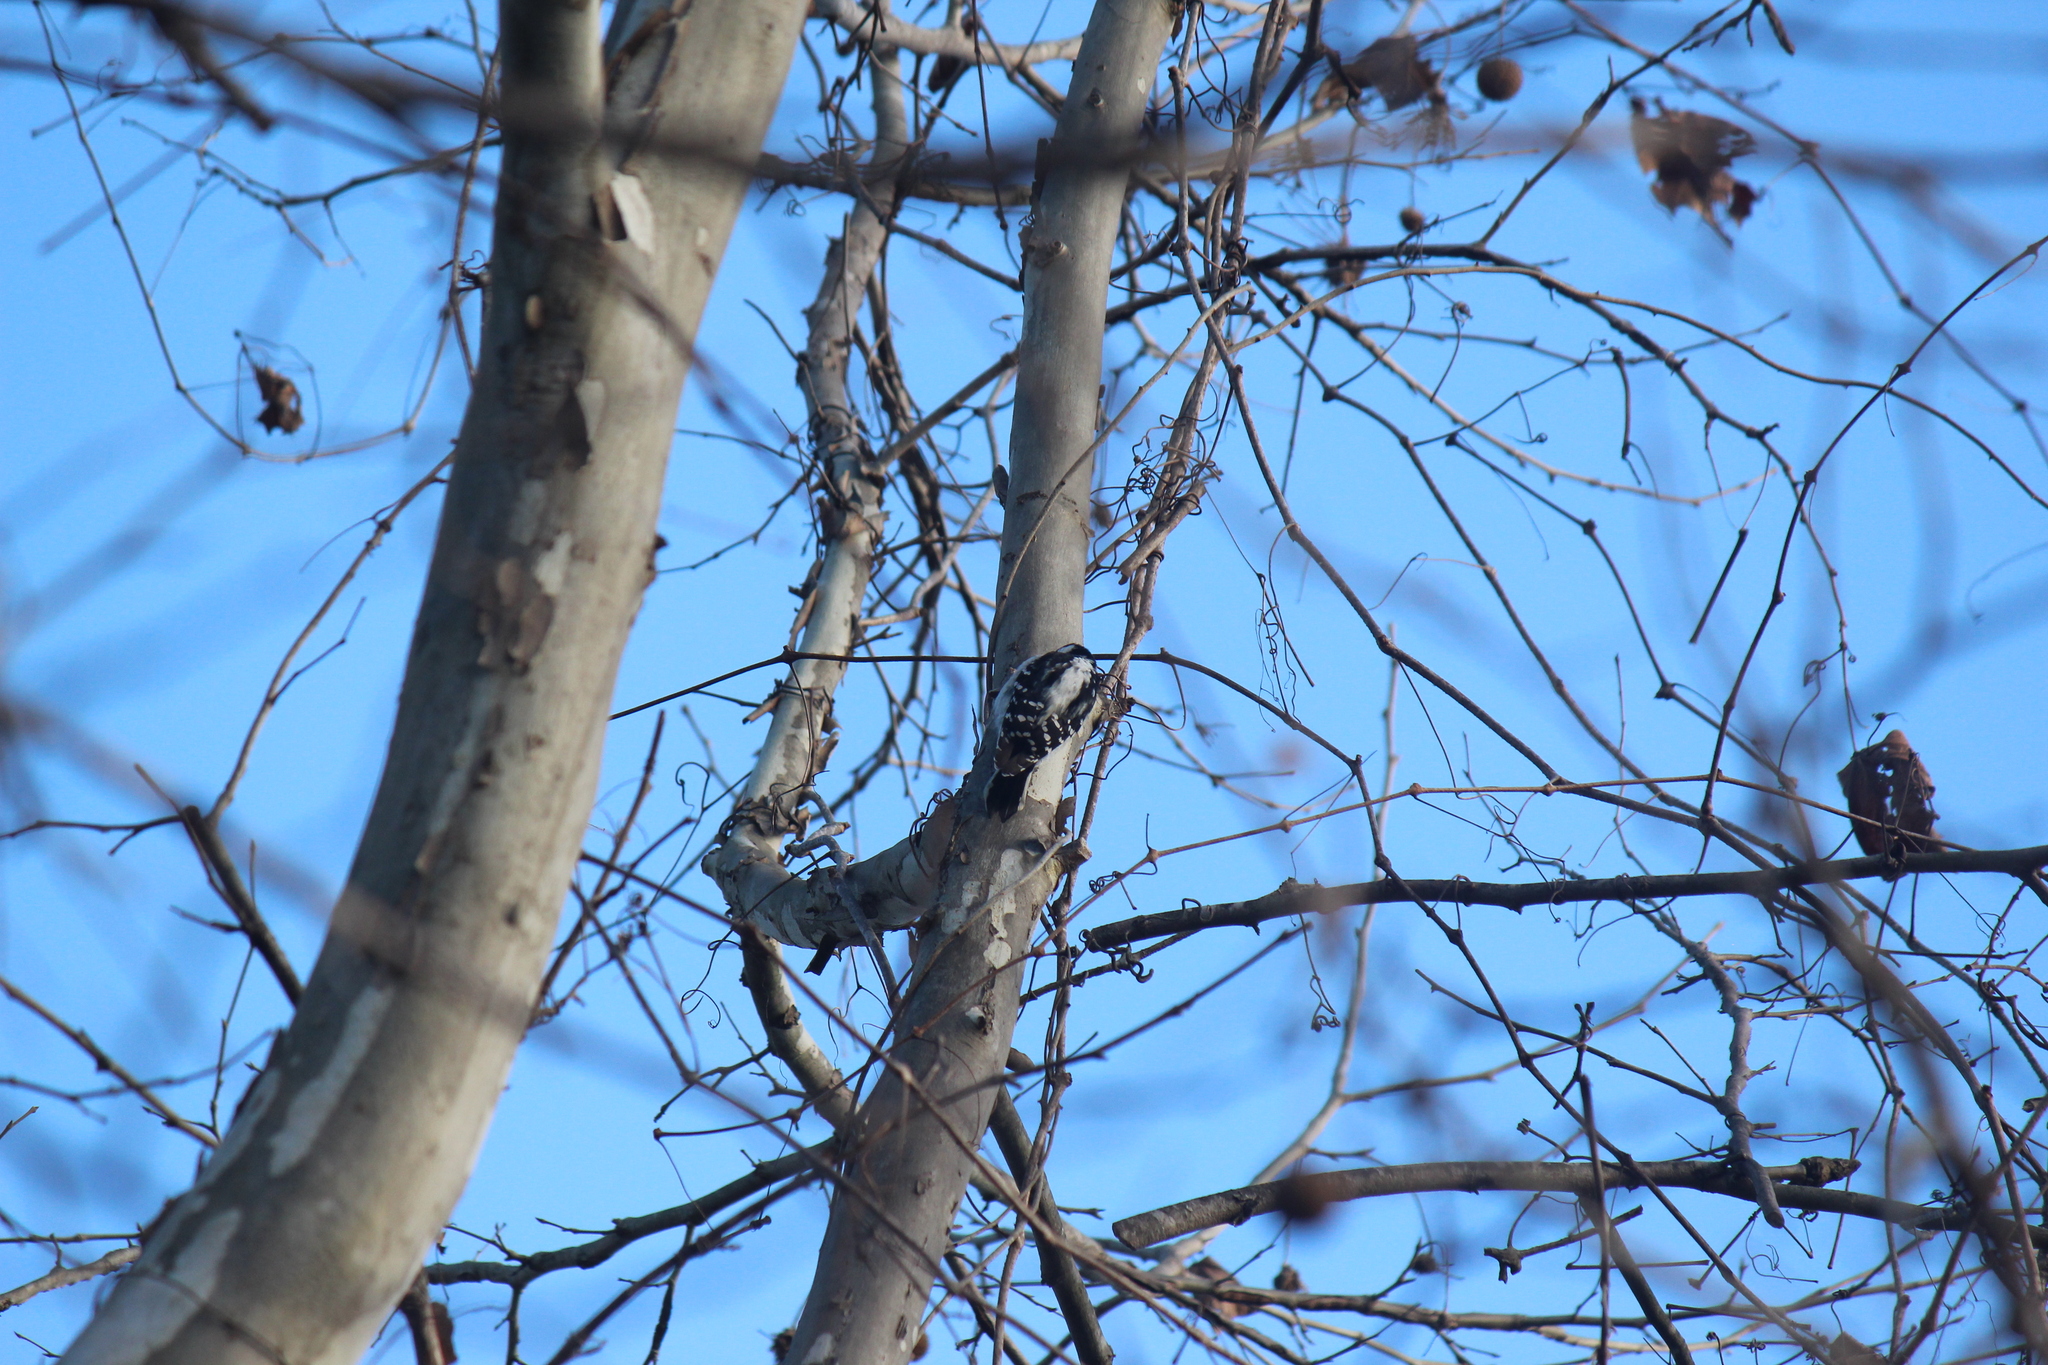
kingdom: Animalia
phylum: Chordata
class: Aves
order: Piciformes
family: Picidae
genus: Dryobates
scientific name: Dryobates pubescens
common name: Downy woodpecker
